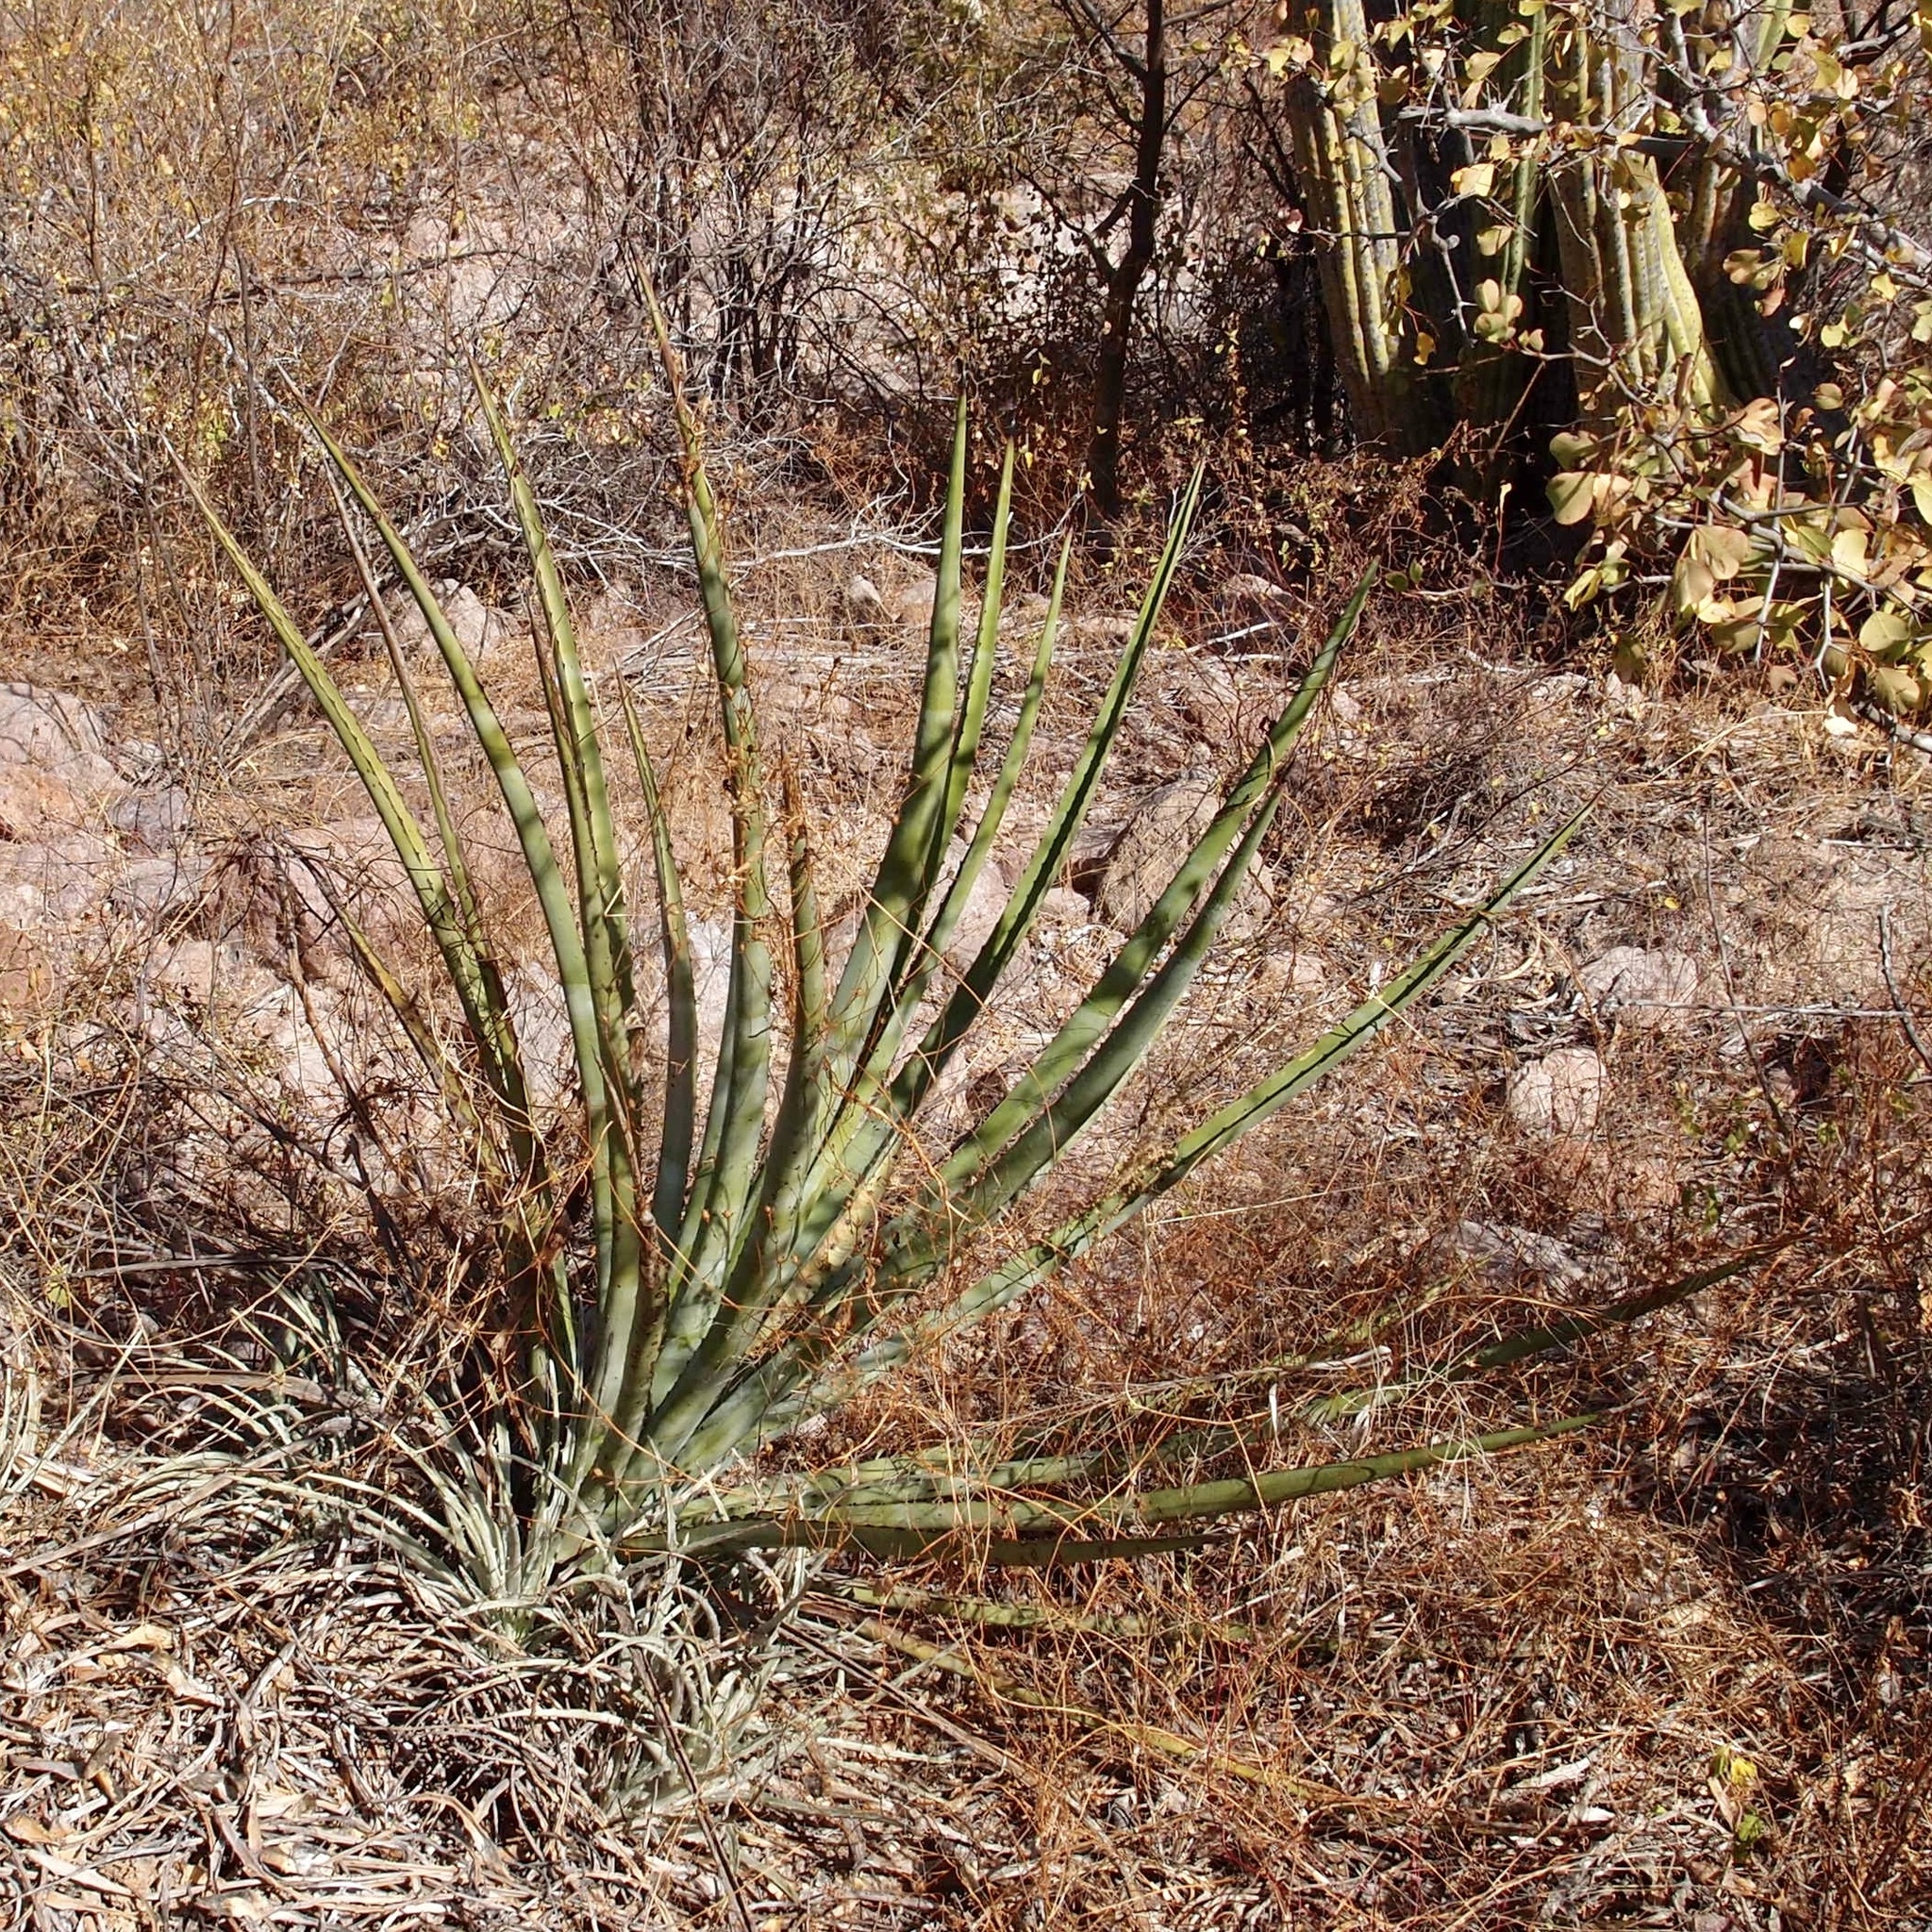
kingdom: Plantae
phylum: Tracheophyta
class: Liliopsida
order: Asparagales
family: Asparagaceae
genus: Agave
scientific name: Agave angustifolia
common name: Mescal agave
